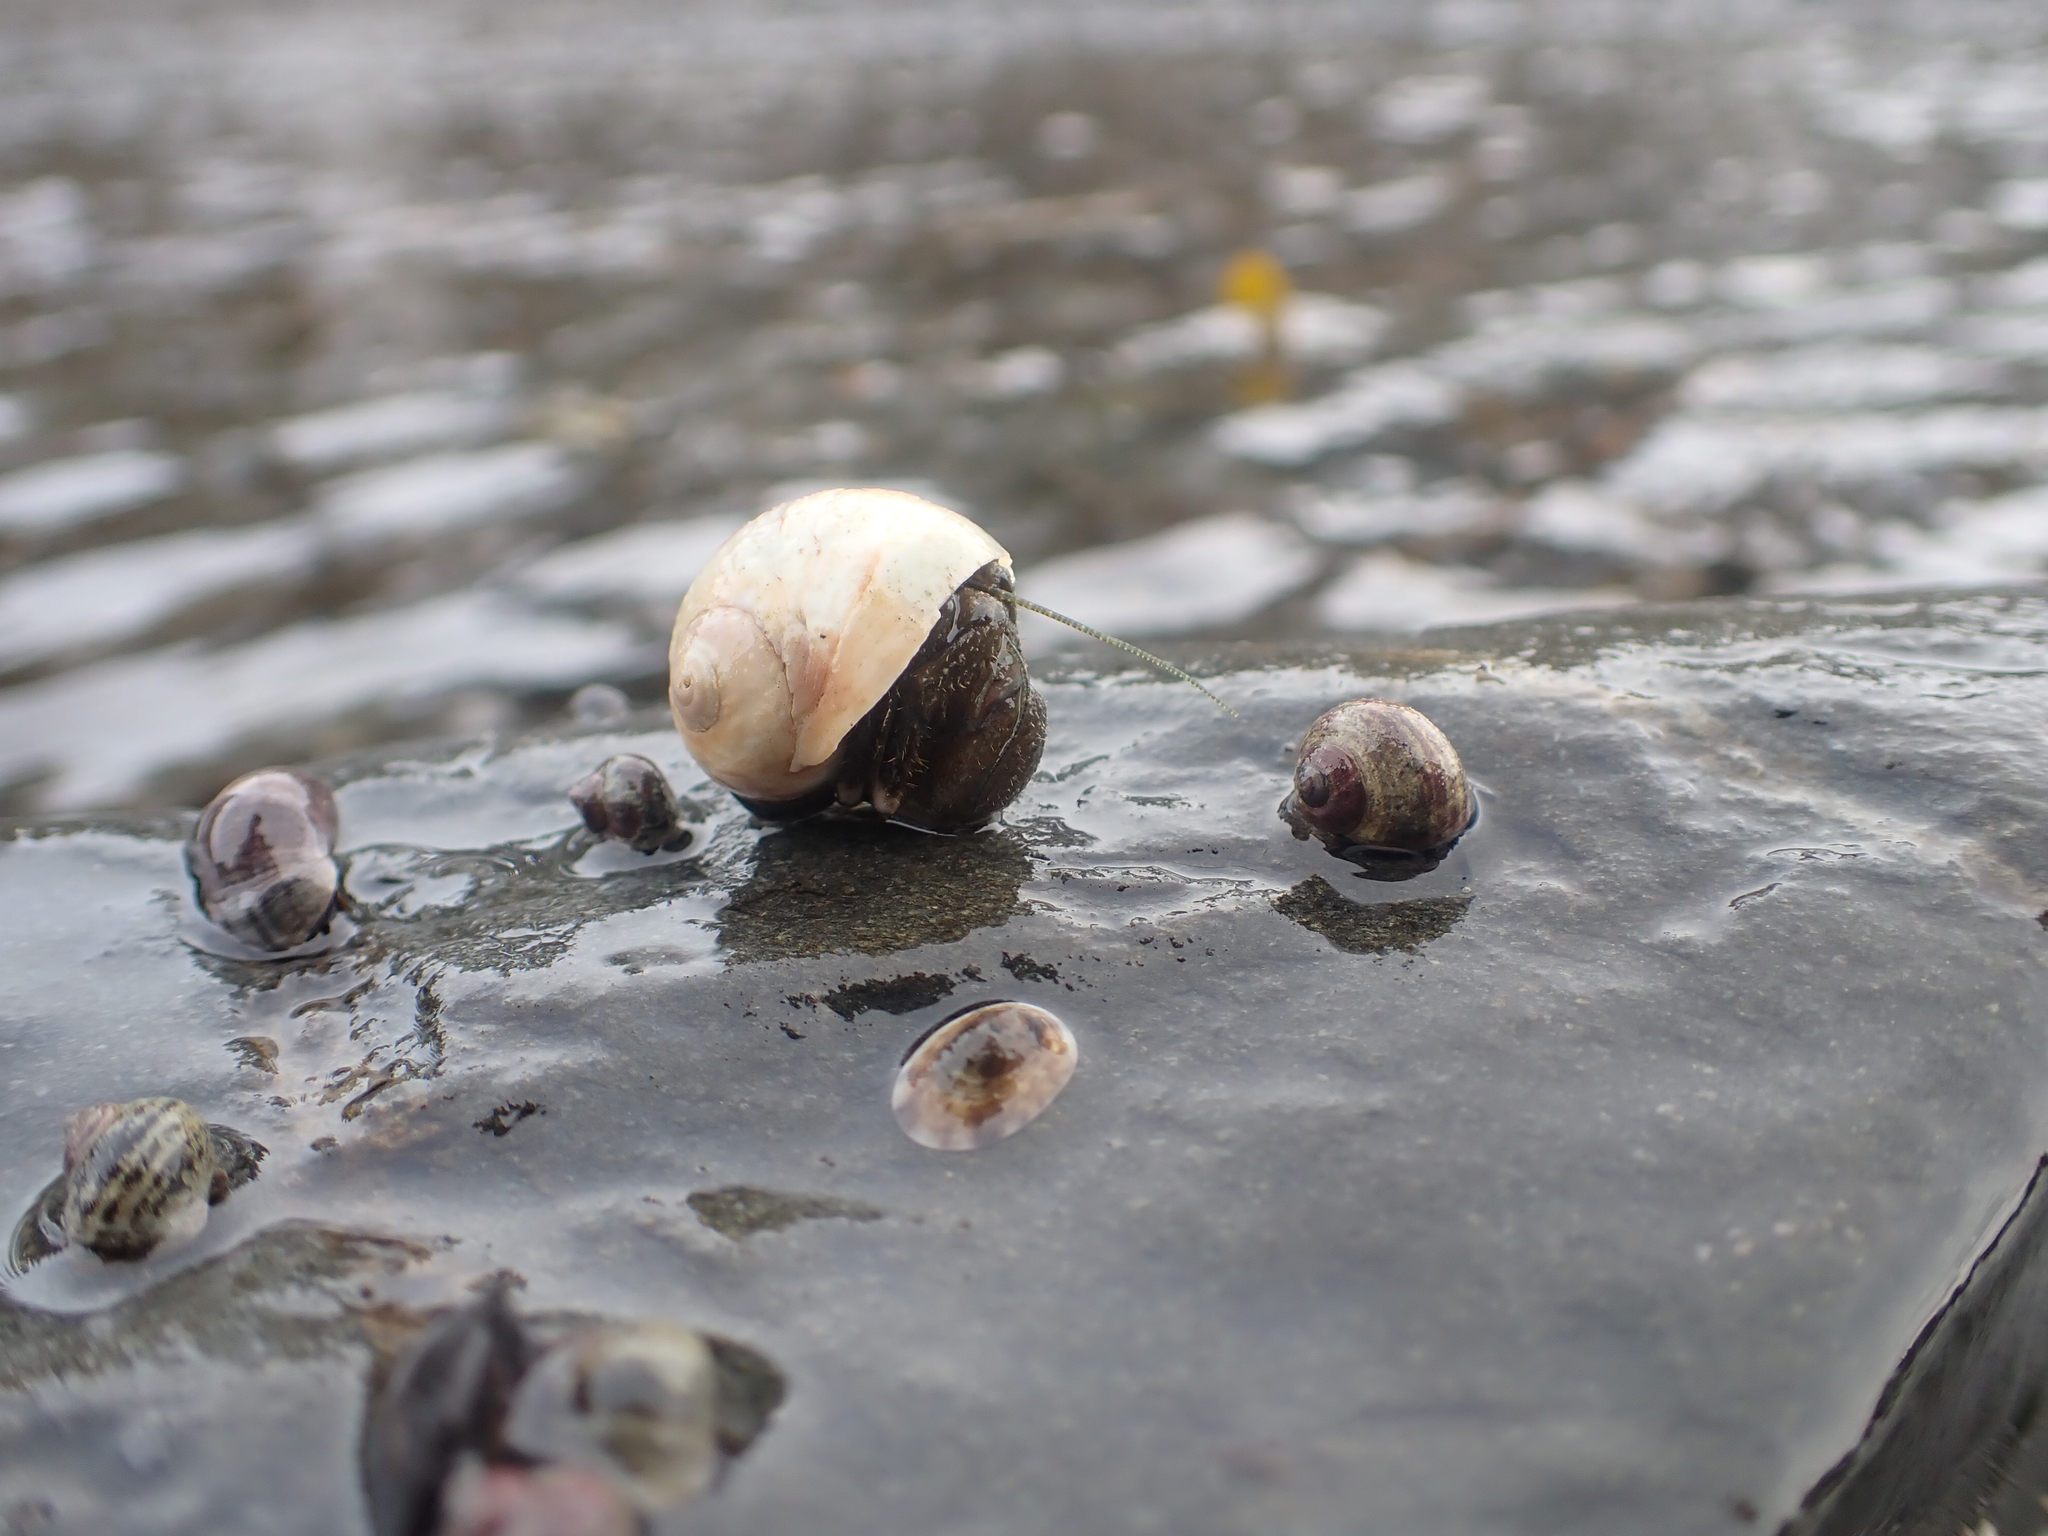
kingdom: Animalia
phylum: Arthropoda
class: Malacostraca
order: Decapoda
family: Paguridae
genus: Pagurus
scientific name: Pagurus hirsutiusculus
